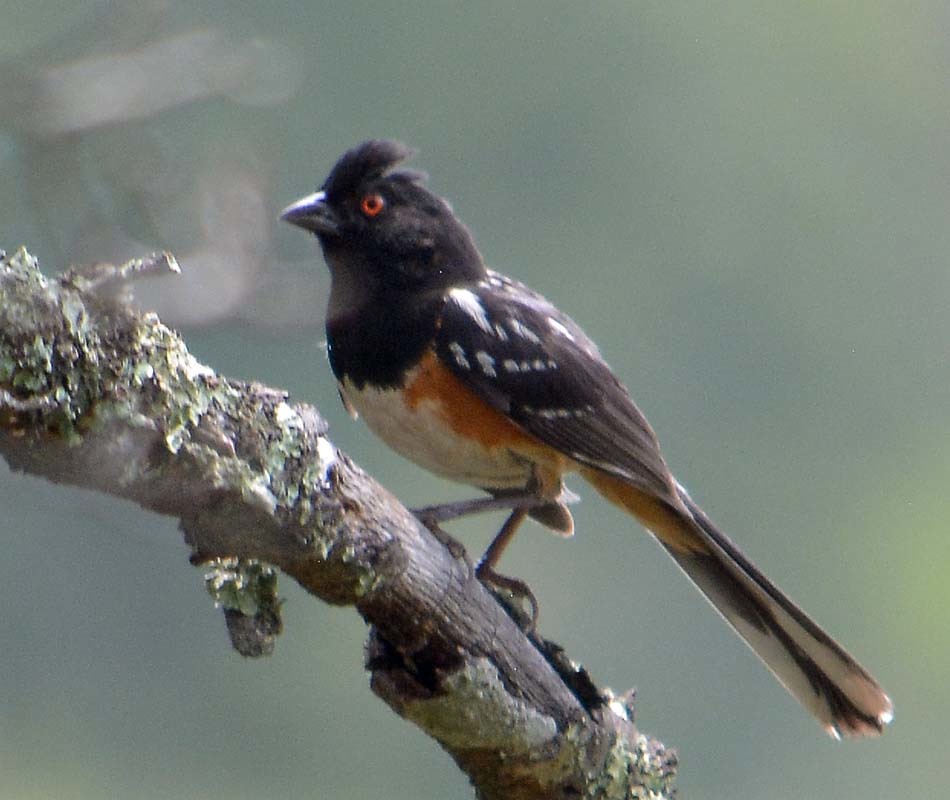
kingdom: Animalia
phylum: Chordata
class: Aves
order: Passeriformes
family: Passerellidae
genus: Pipilo
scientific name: Pipilo maculatus
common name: Spotted towhee
